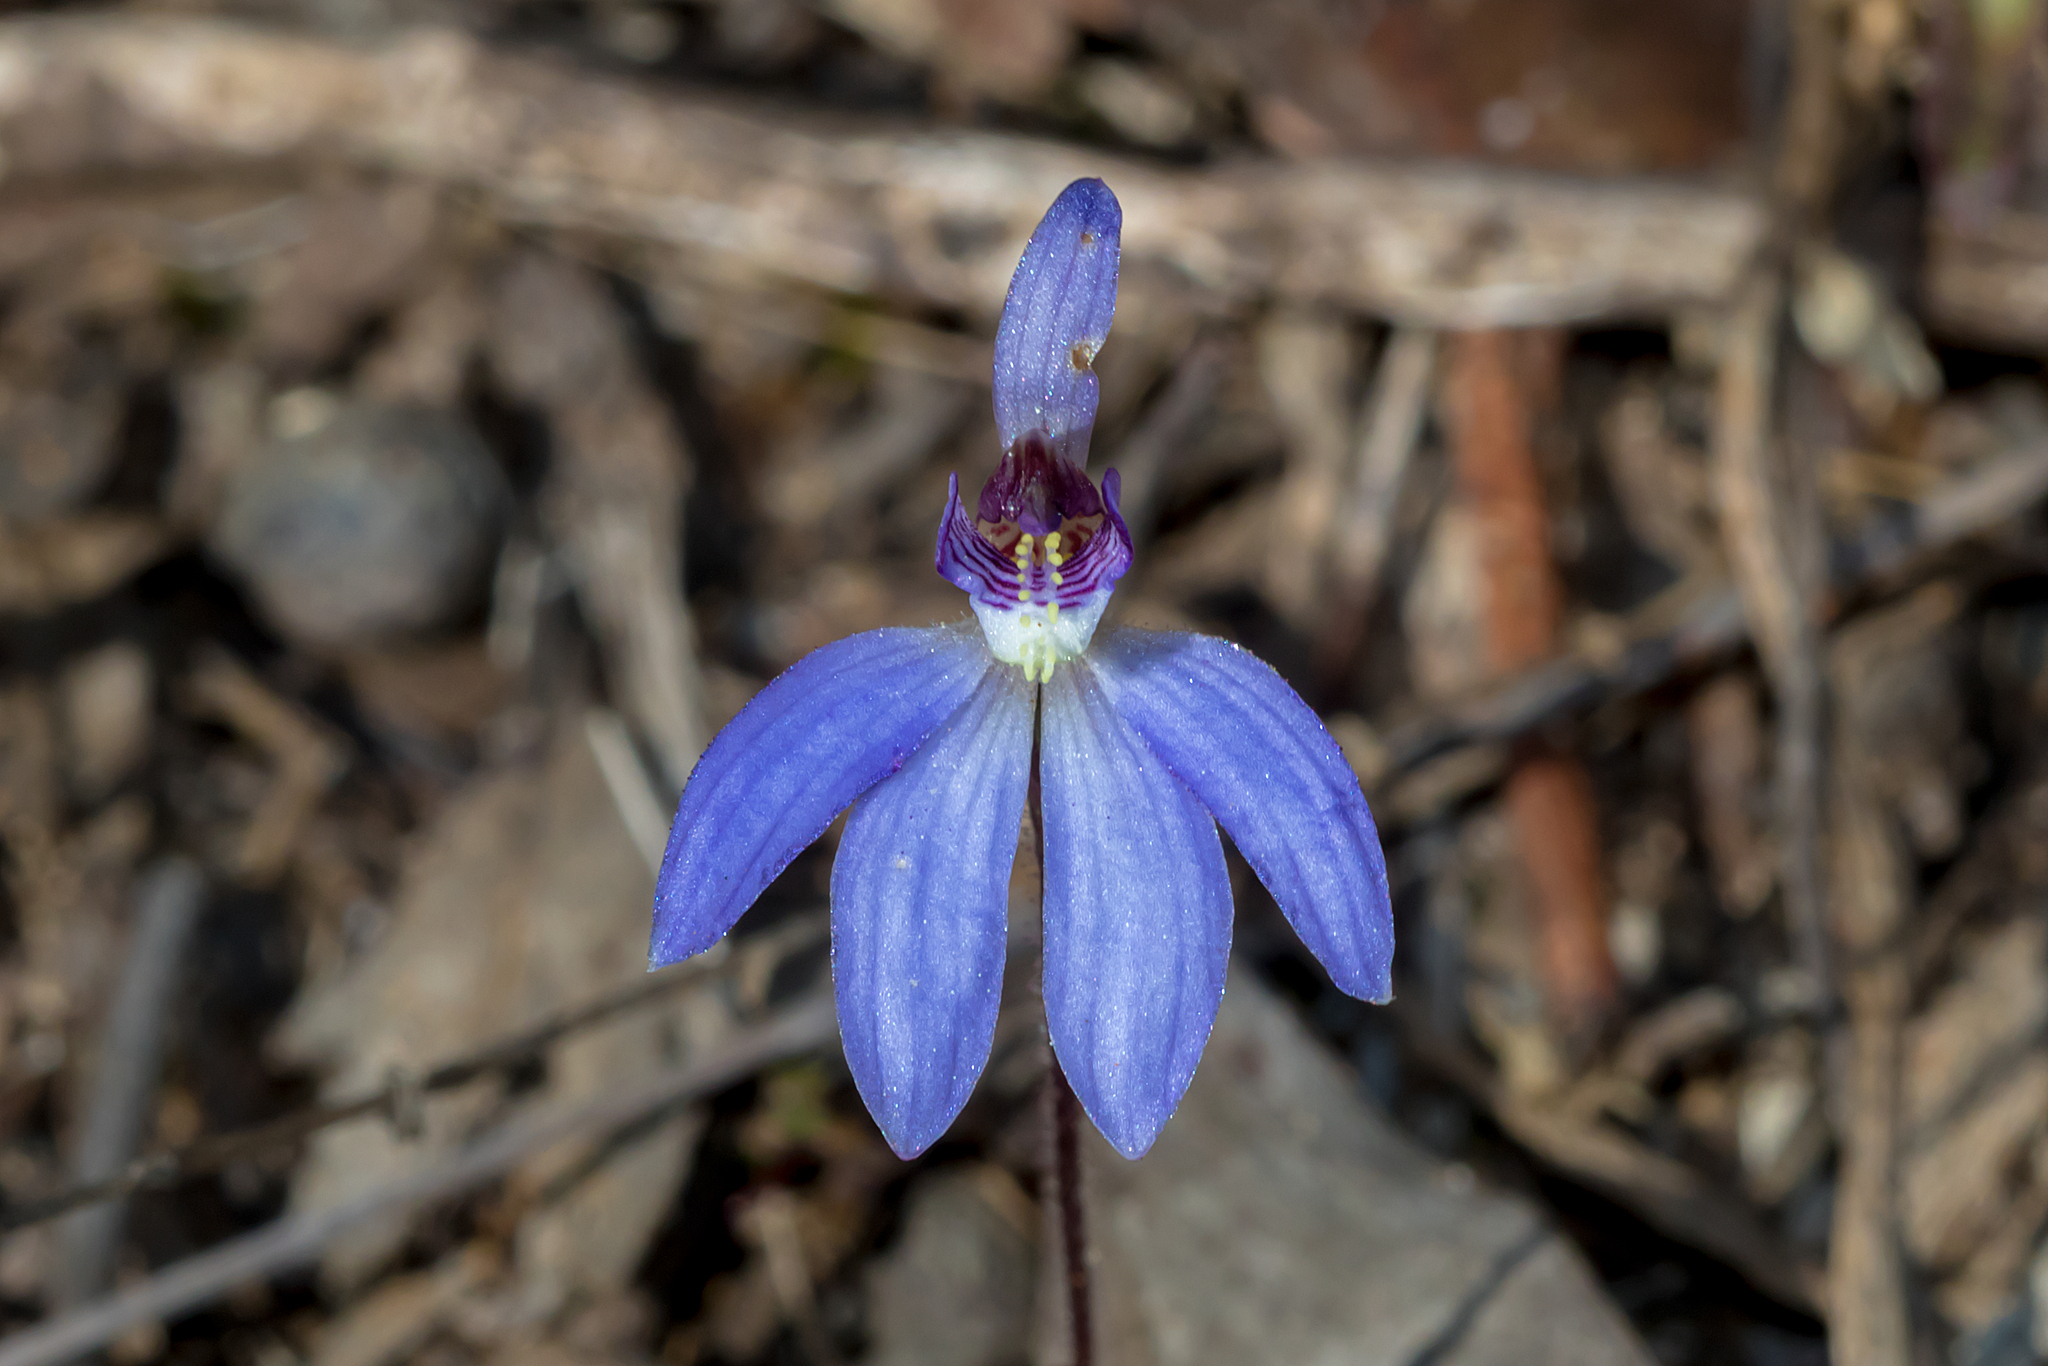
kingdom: Plantae
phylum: Tracheophyta
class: Liliopsida
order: Asparagales
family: Orchidaceae
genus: Caladenia
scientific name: Caladenia caerulea
